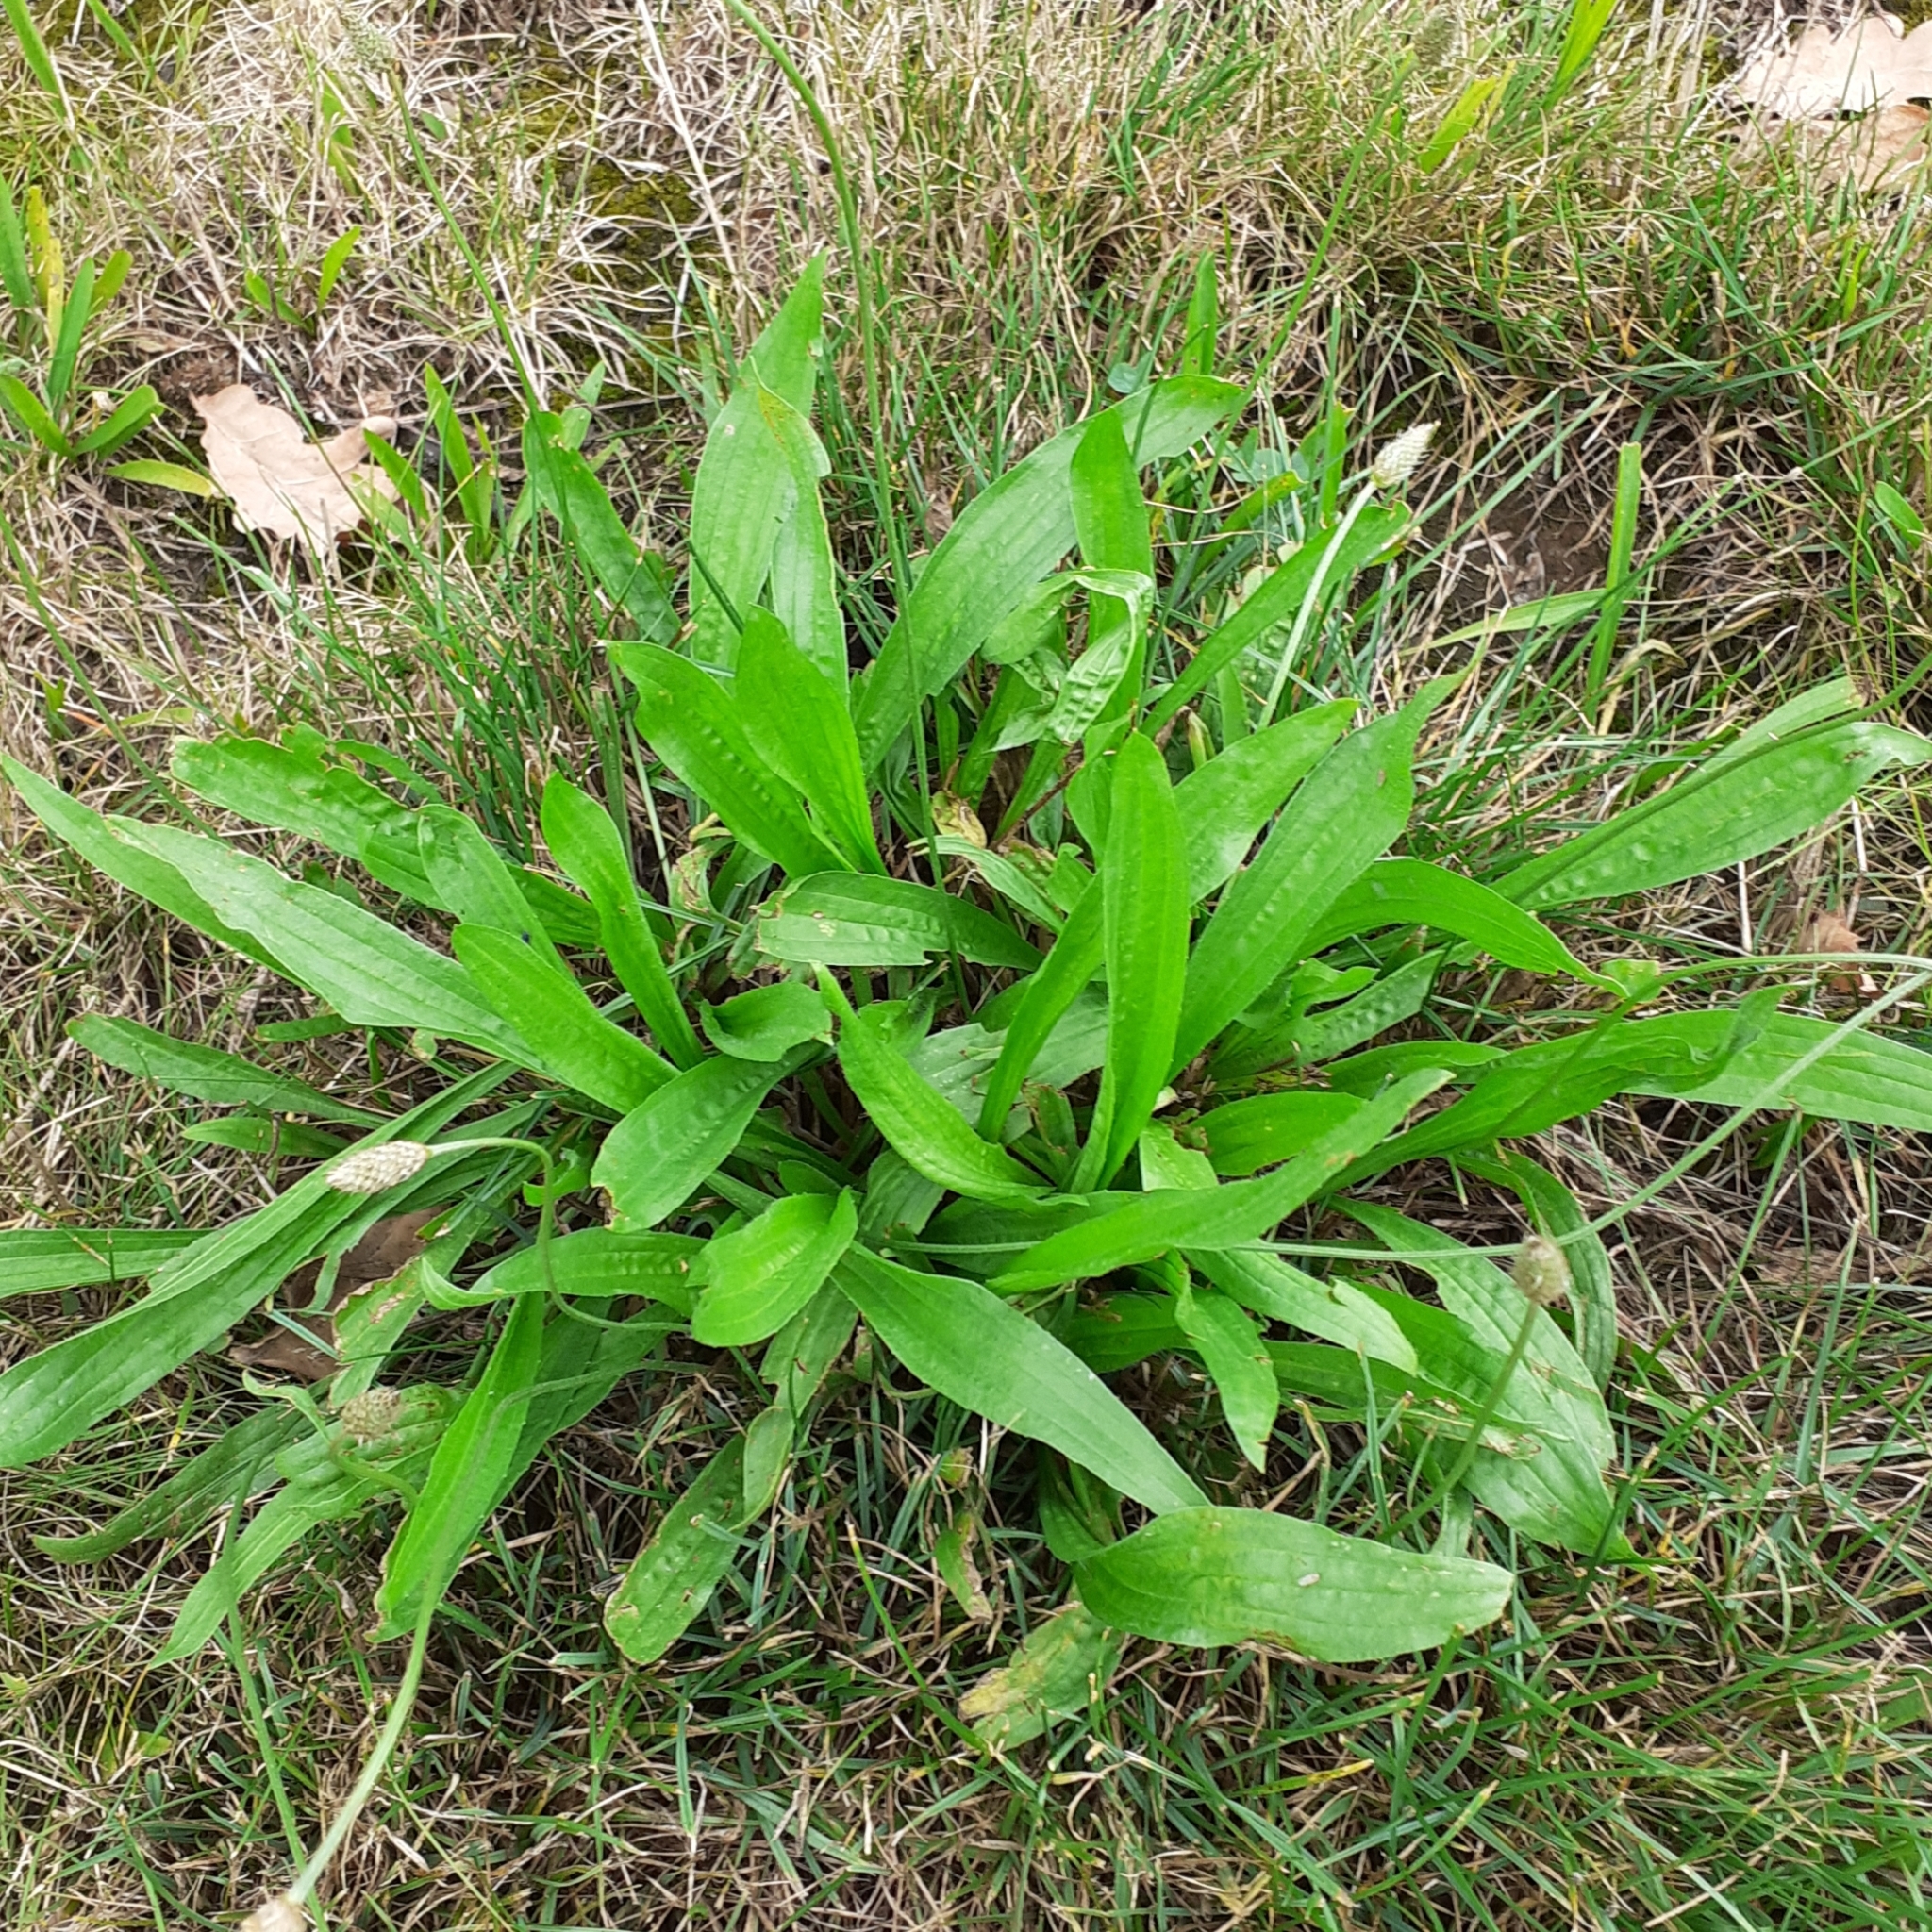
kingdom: Plantae
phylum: Tracheophyta
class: Magnoliopsida
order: Lamiales
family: Plantaginaceae
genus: Plantago
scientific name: Plantago lanceolata
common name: Ribwort plantain
